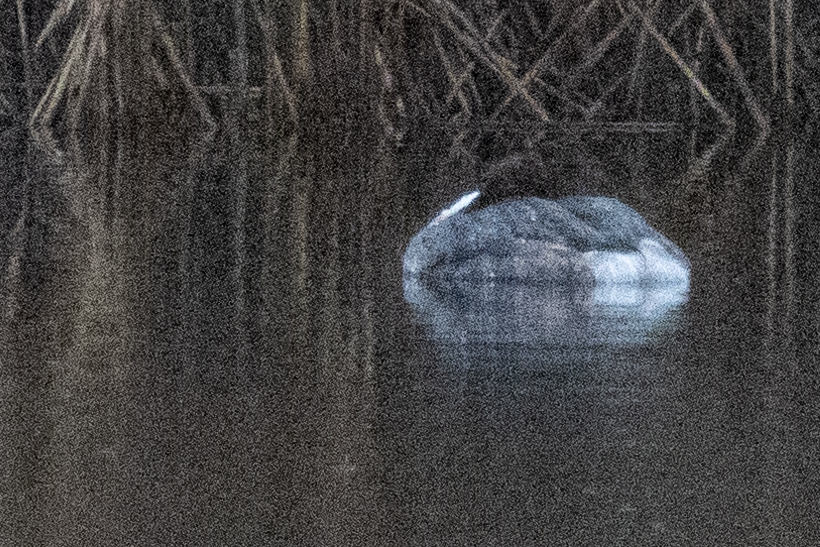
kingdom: Animalia
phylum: Chordata
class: Aves
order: Podicipediformes
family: Podicipedidae
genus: Podiceps
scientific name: Podiceps cristatus
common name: Great crested grebe
